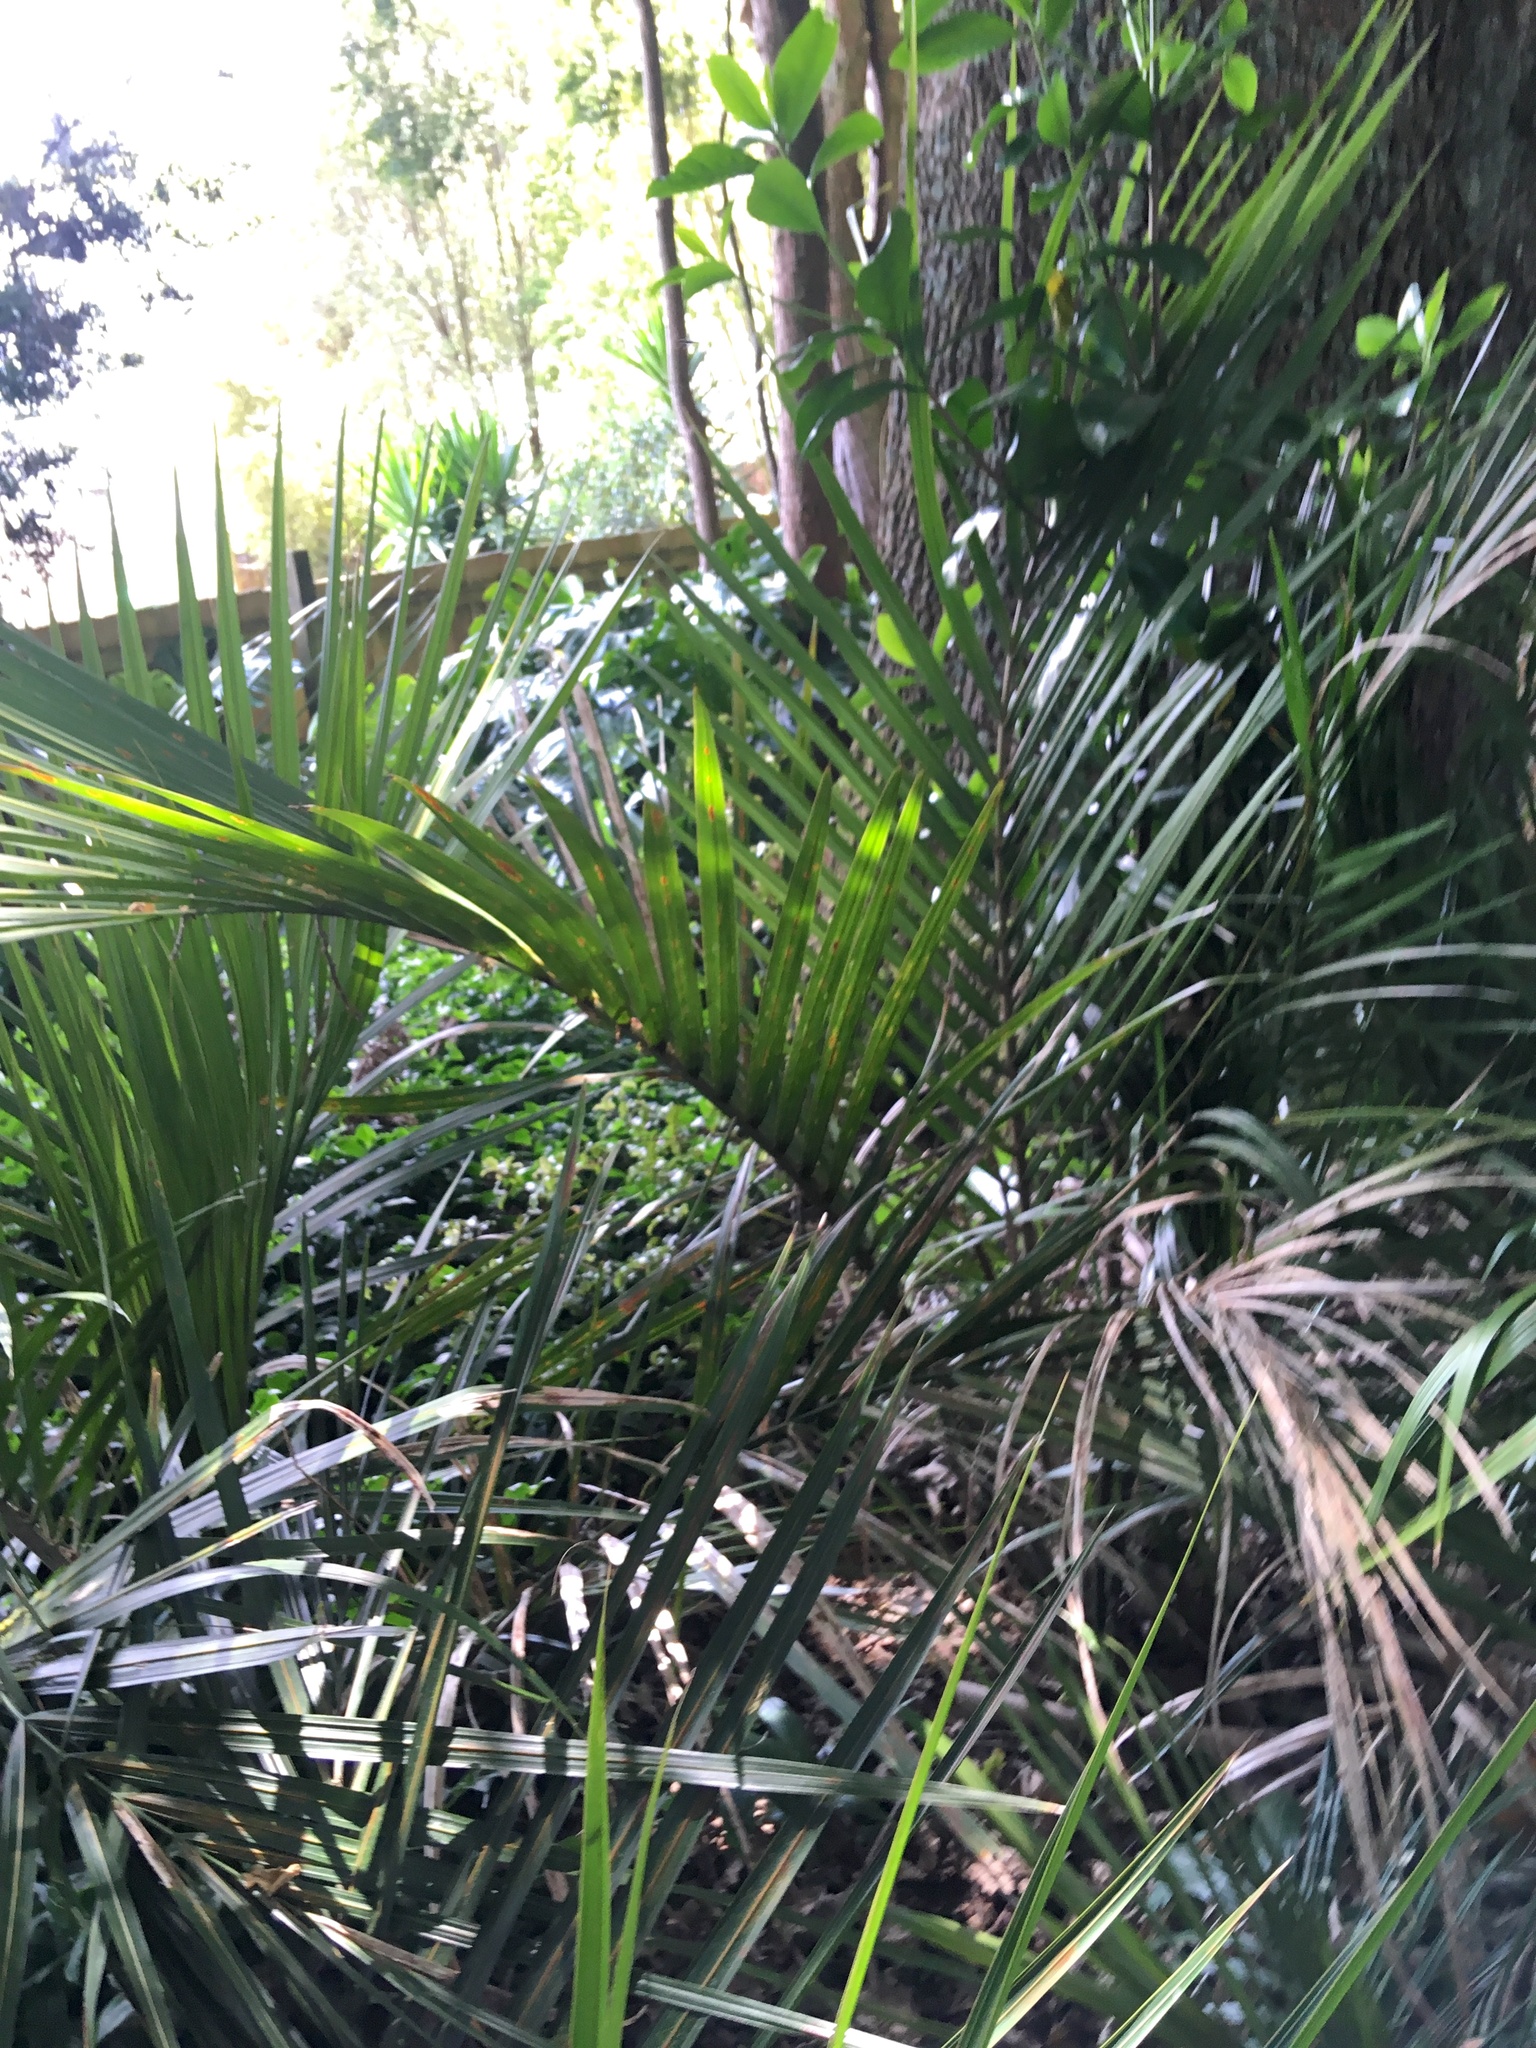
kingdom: Plantae
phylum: Tracheophyta
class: Liliopsida
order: Arecales
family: Arecaceae
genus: Rhopalostylis
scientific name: Rhopalostylis sapida
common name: Feather-duster palm
